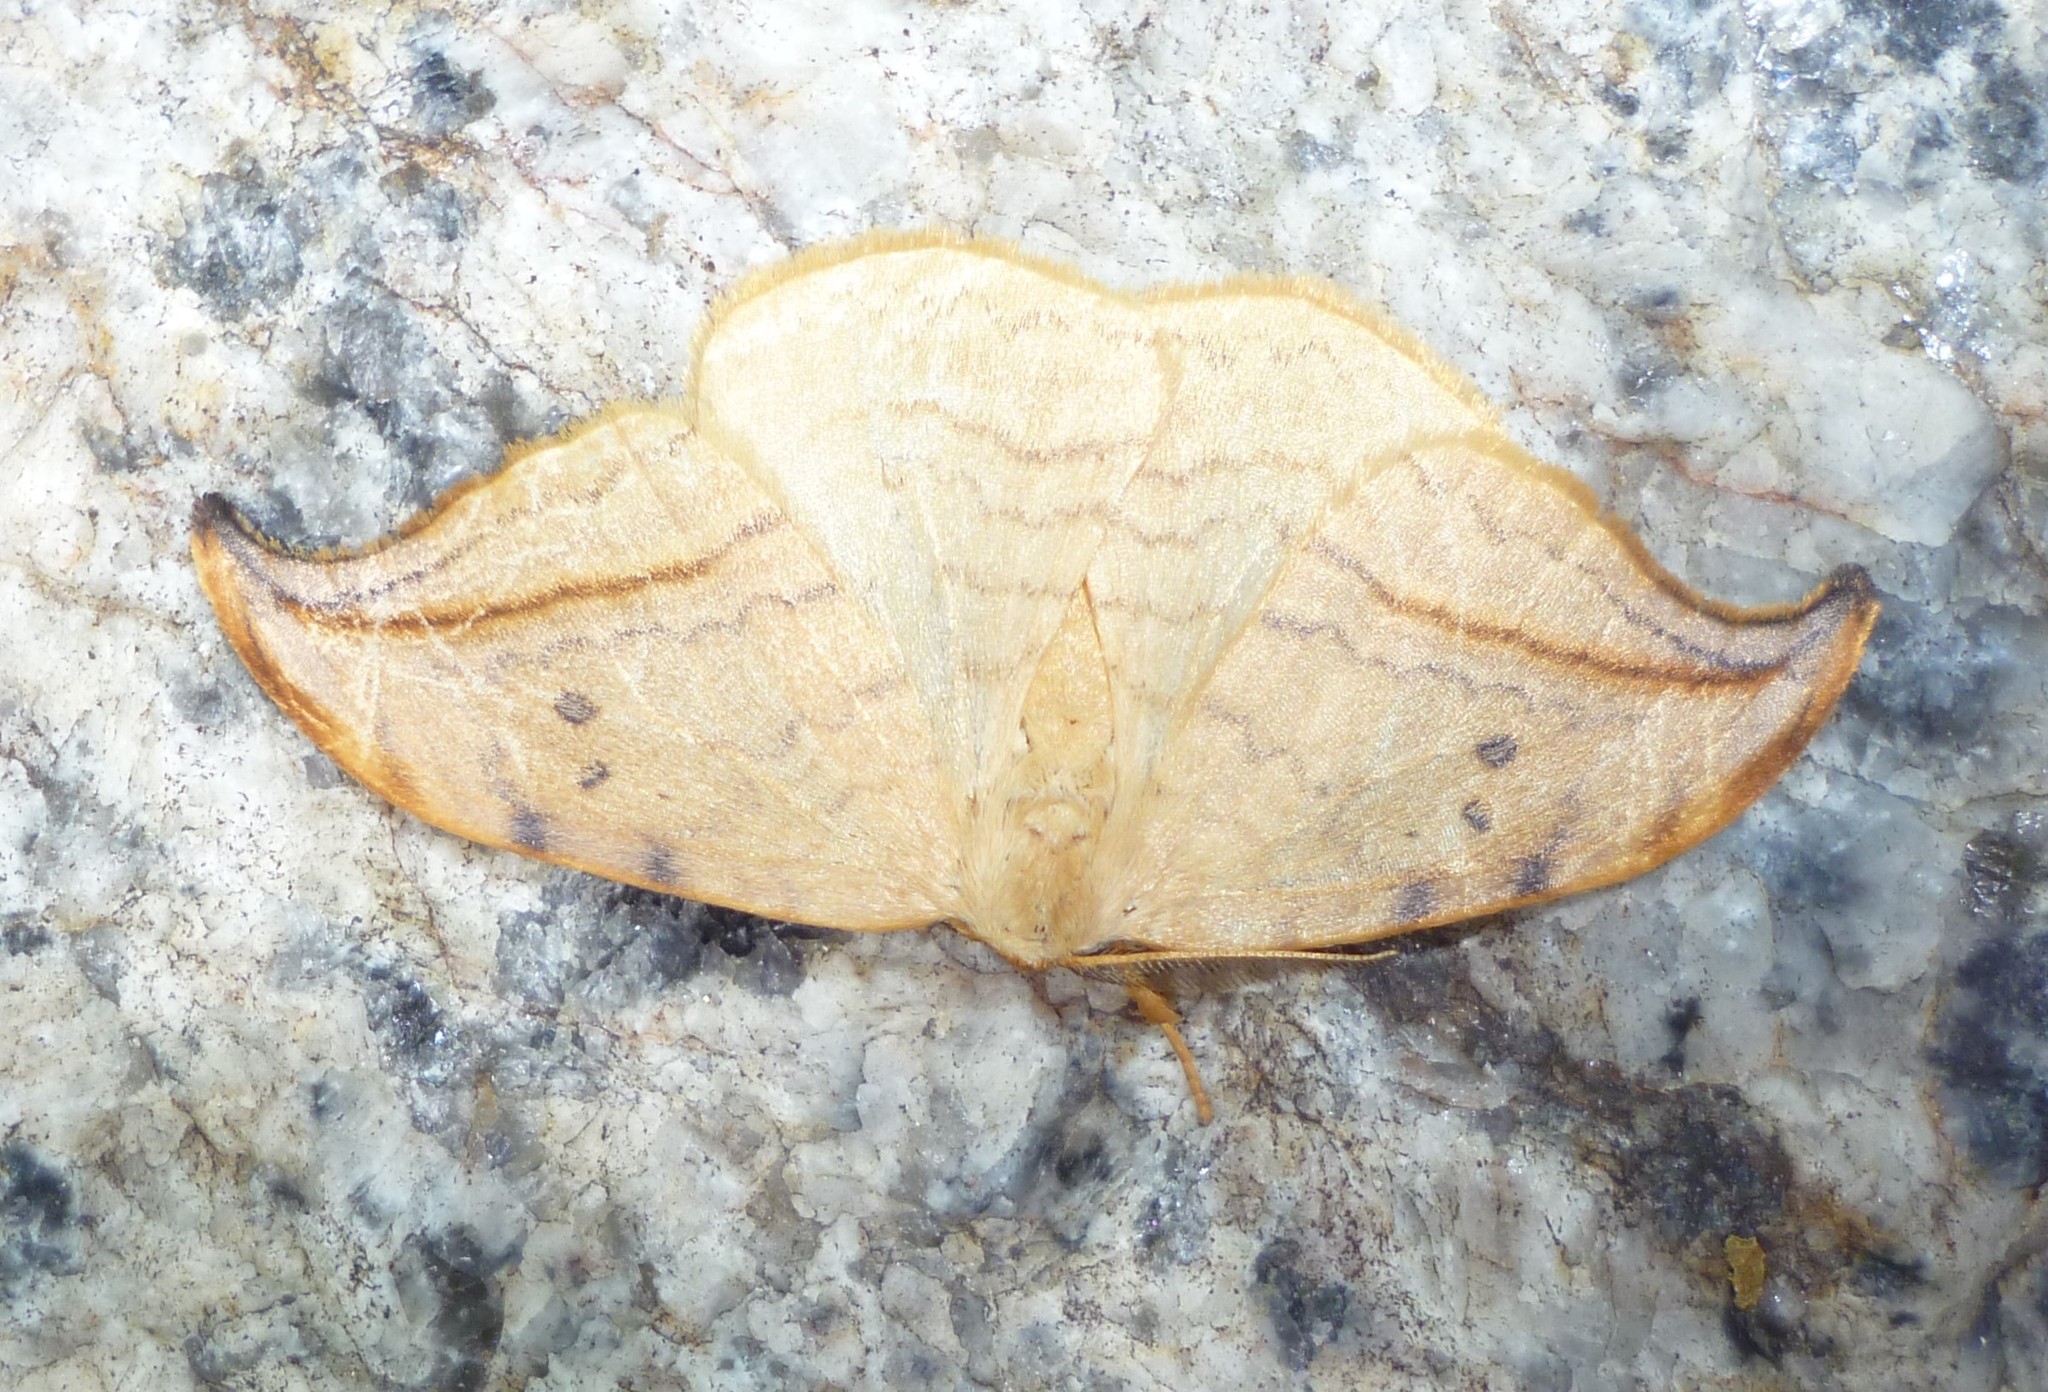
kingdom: Animalia
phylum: Arthropoda
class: Insecta
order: Lepidoptera
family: Drepanidae
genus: Drepana
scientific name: Drepana arcuata
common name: Arched hooktip moth
